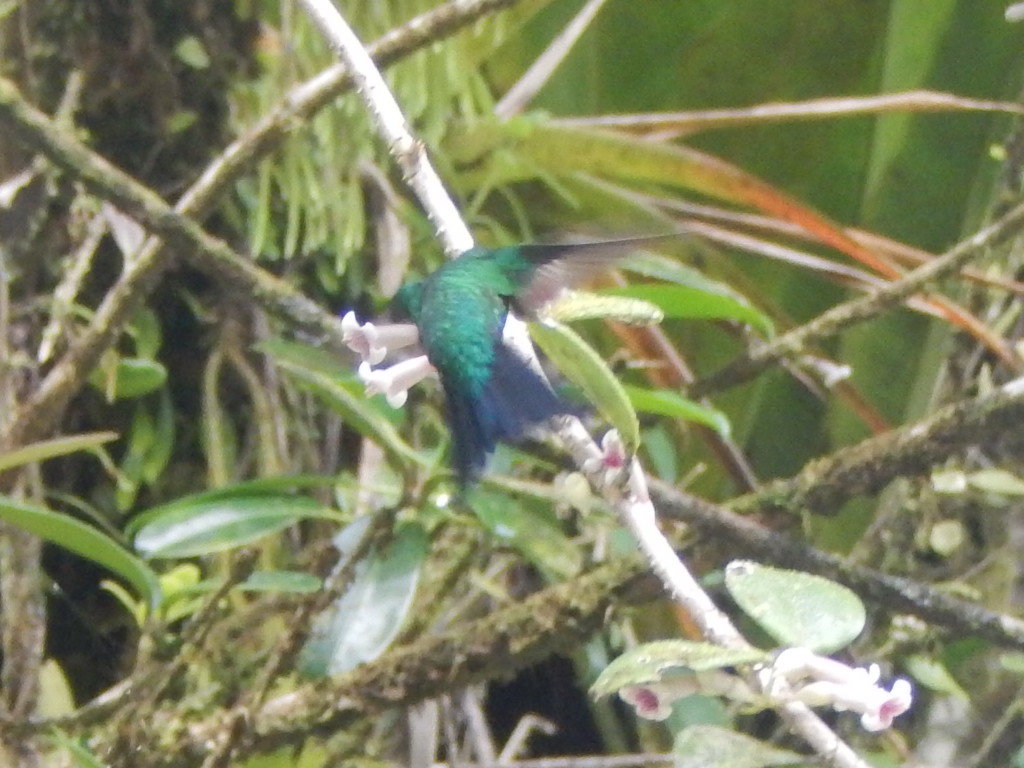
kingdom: Animalia
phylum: Chordata
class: Aves
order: Apodiformes
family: Trochilidae
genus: Riccordia
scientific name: Riccordia maugaeus
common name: Puerto rican emerald
